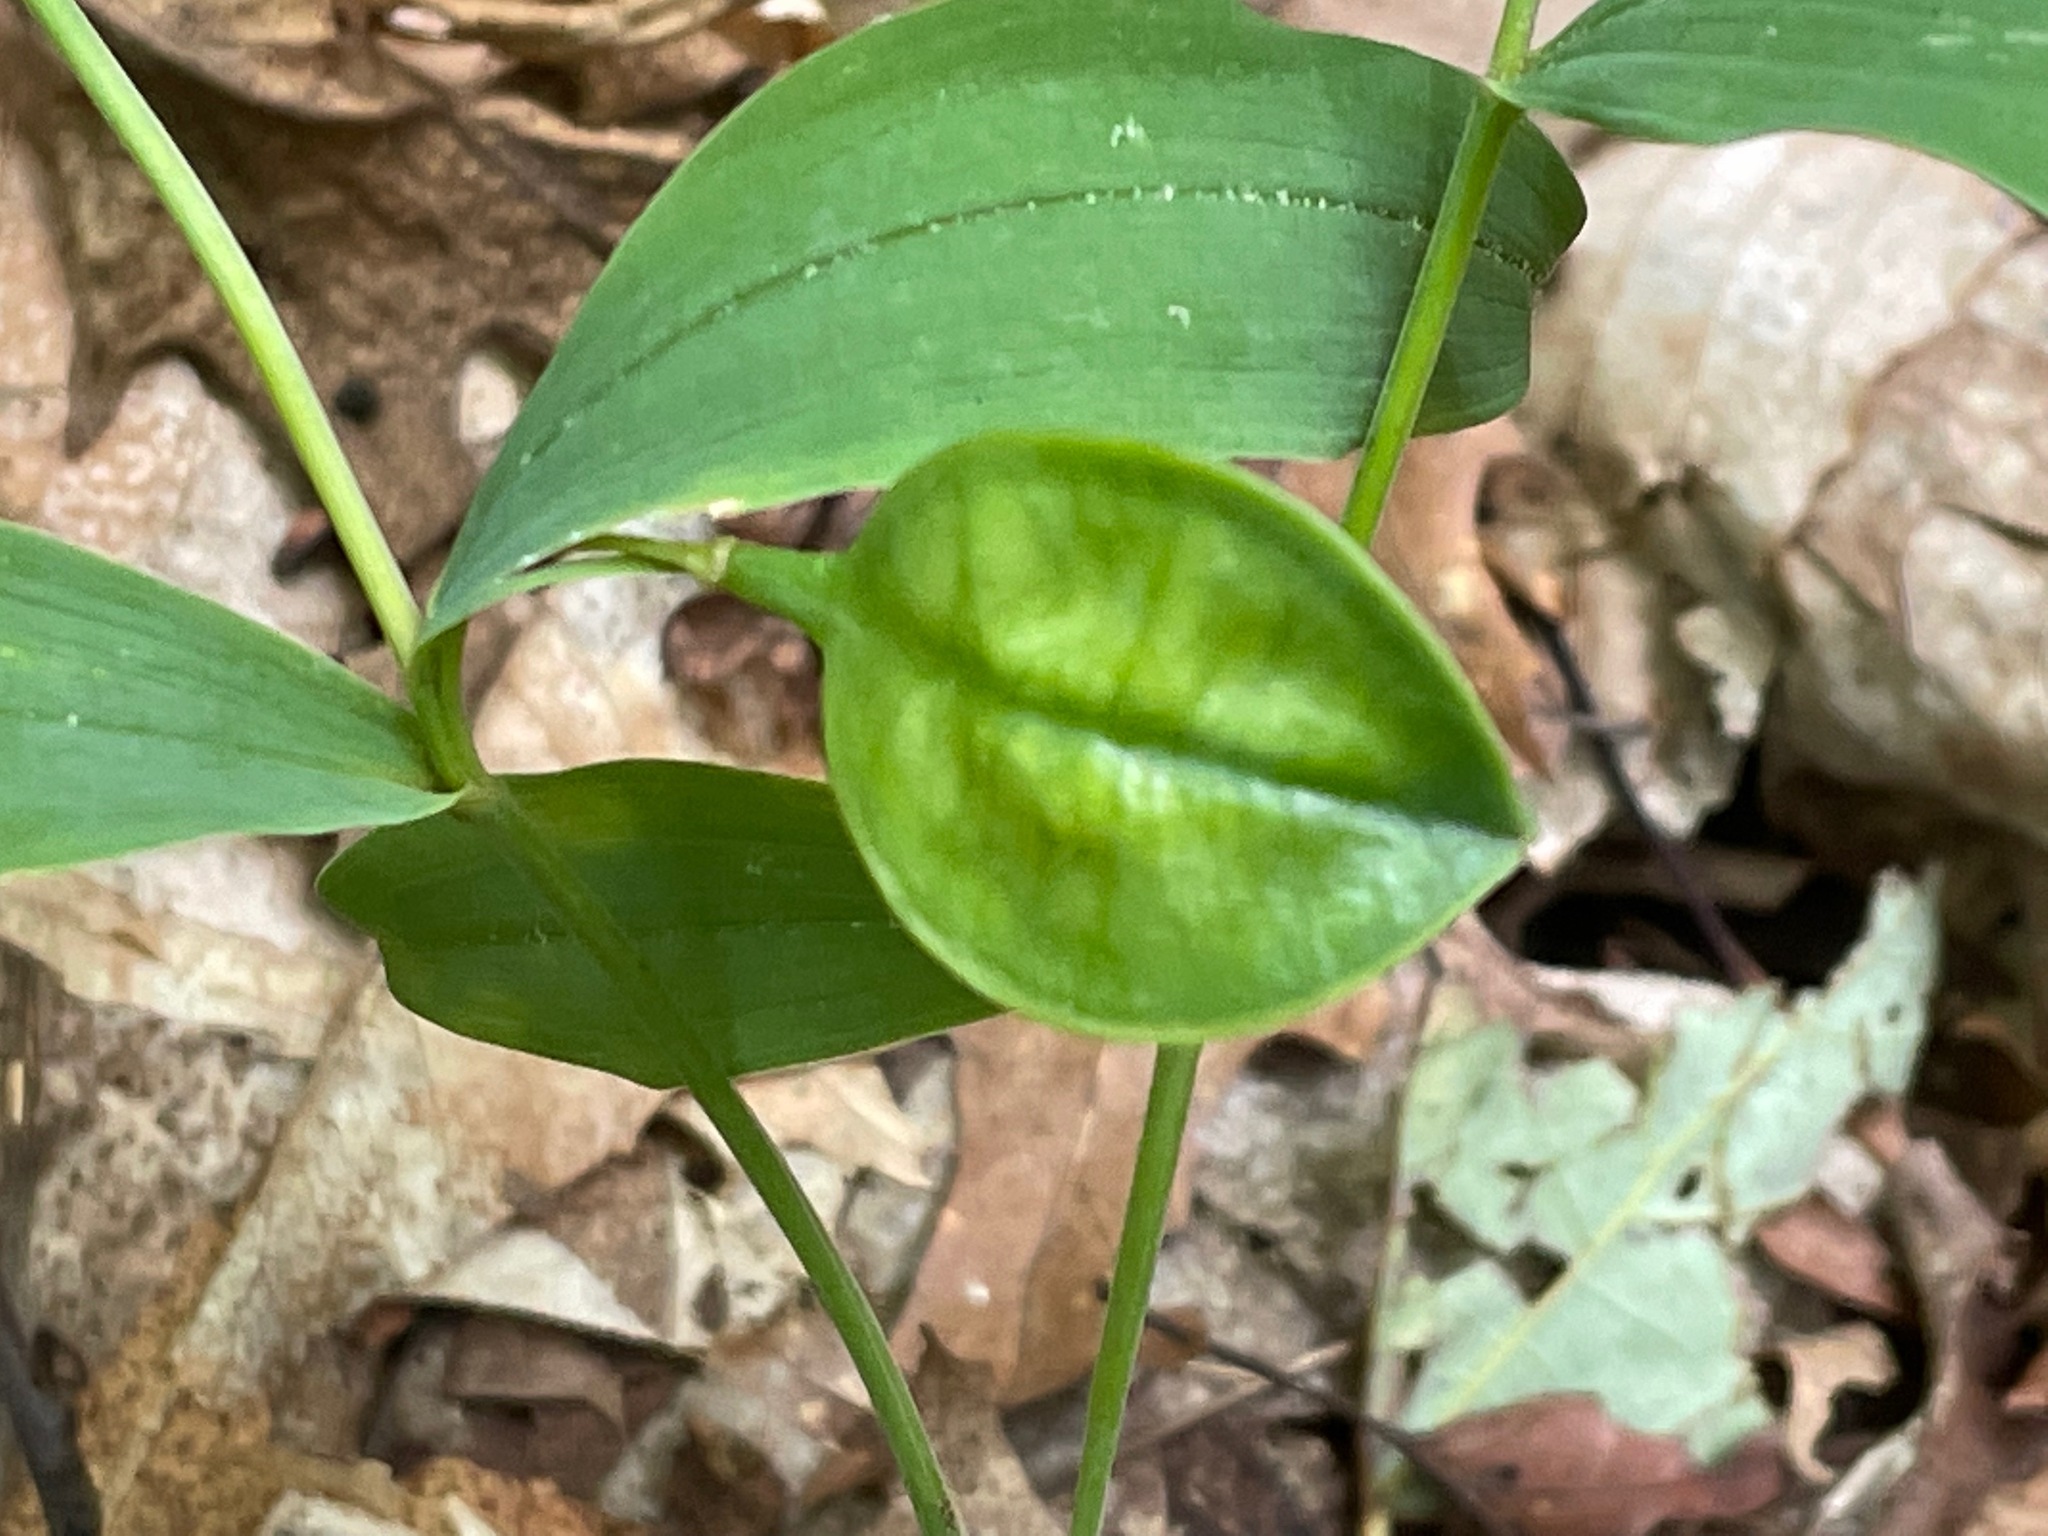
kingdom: Plantae
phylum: Tracheophyta
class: Liliopsida
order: Liliales
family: Colchicaceae
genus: Uvularia
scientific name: Uvularia sessilifolia
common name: Straw-lily
